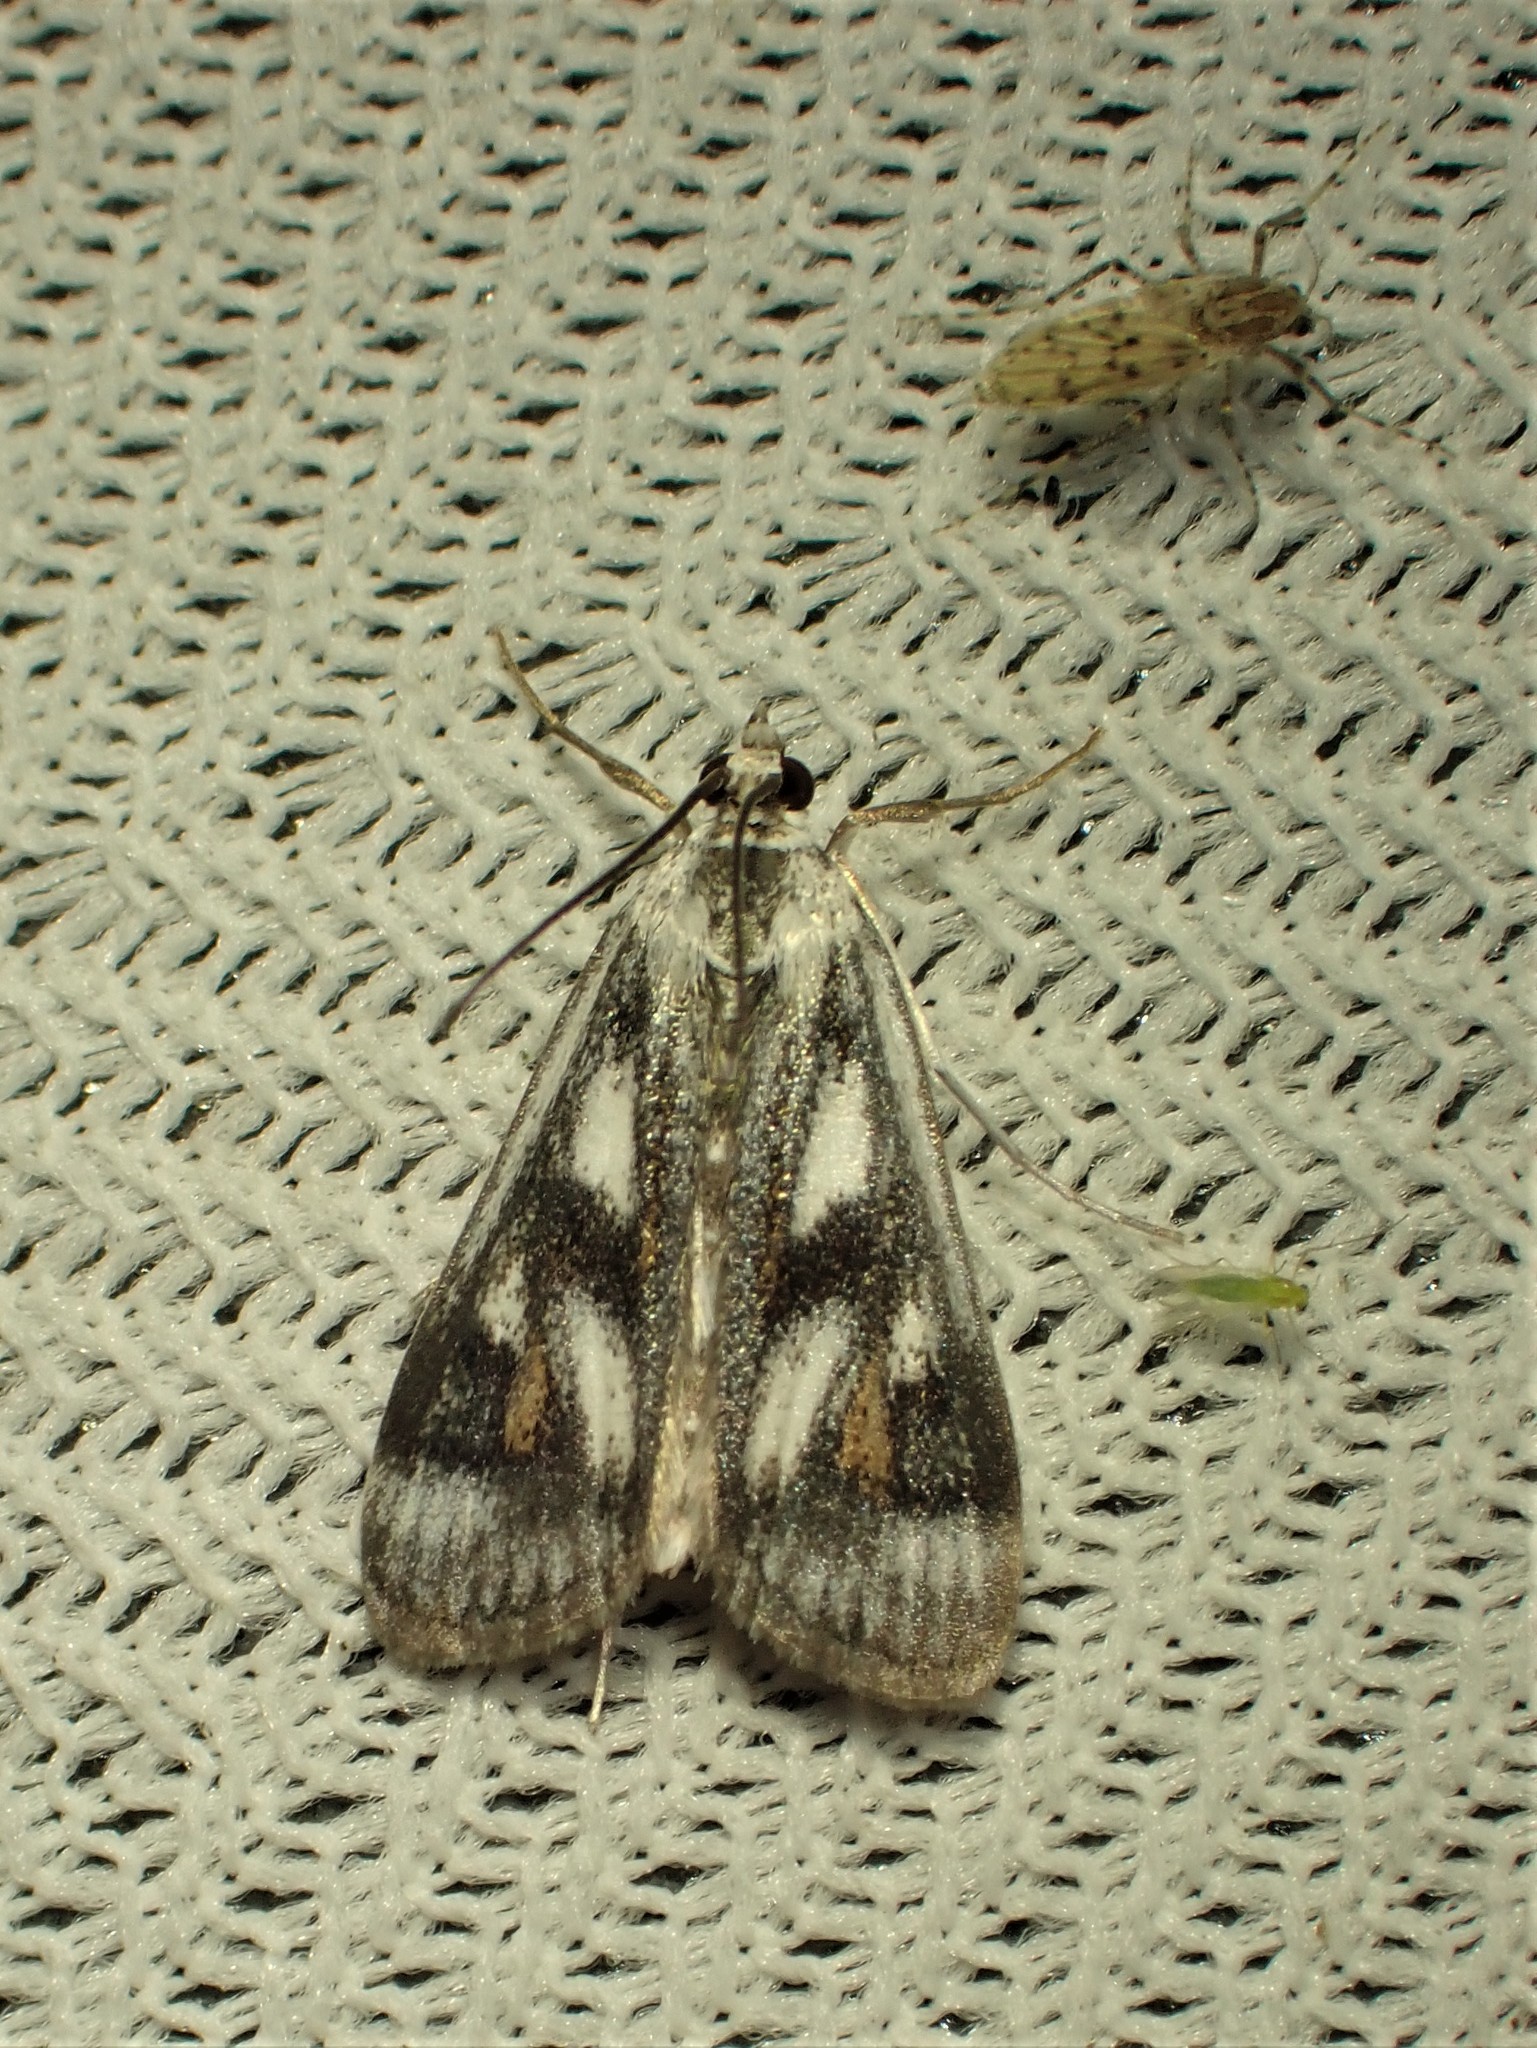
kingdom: Animalia
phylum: Arthropoda
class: Insecta
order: Lepidoptera
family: Crambidae
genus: Parapoynx
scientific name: Parapoynx maculalis
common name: Polymorphic pondweed moth
